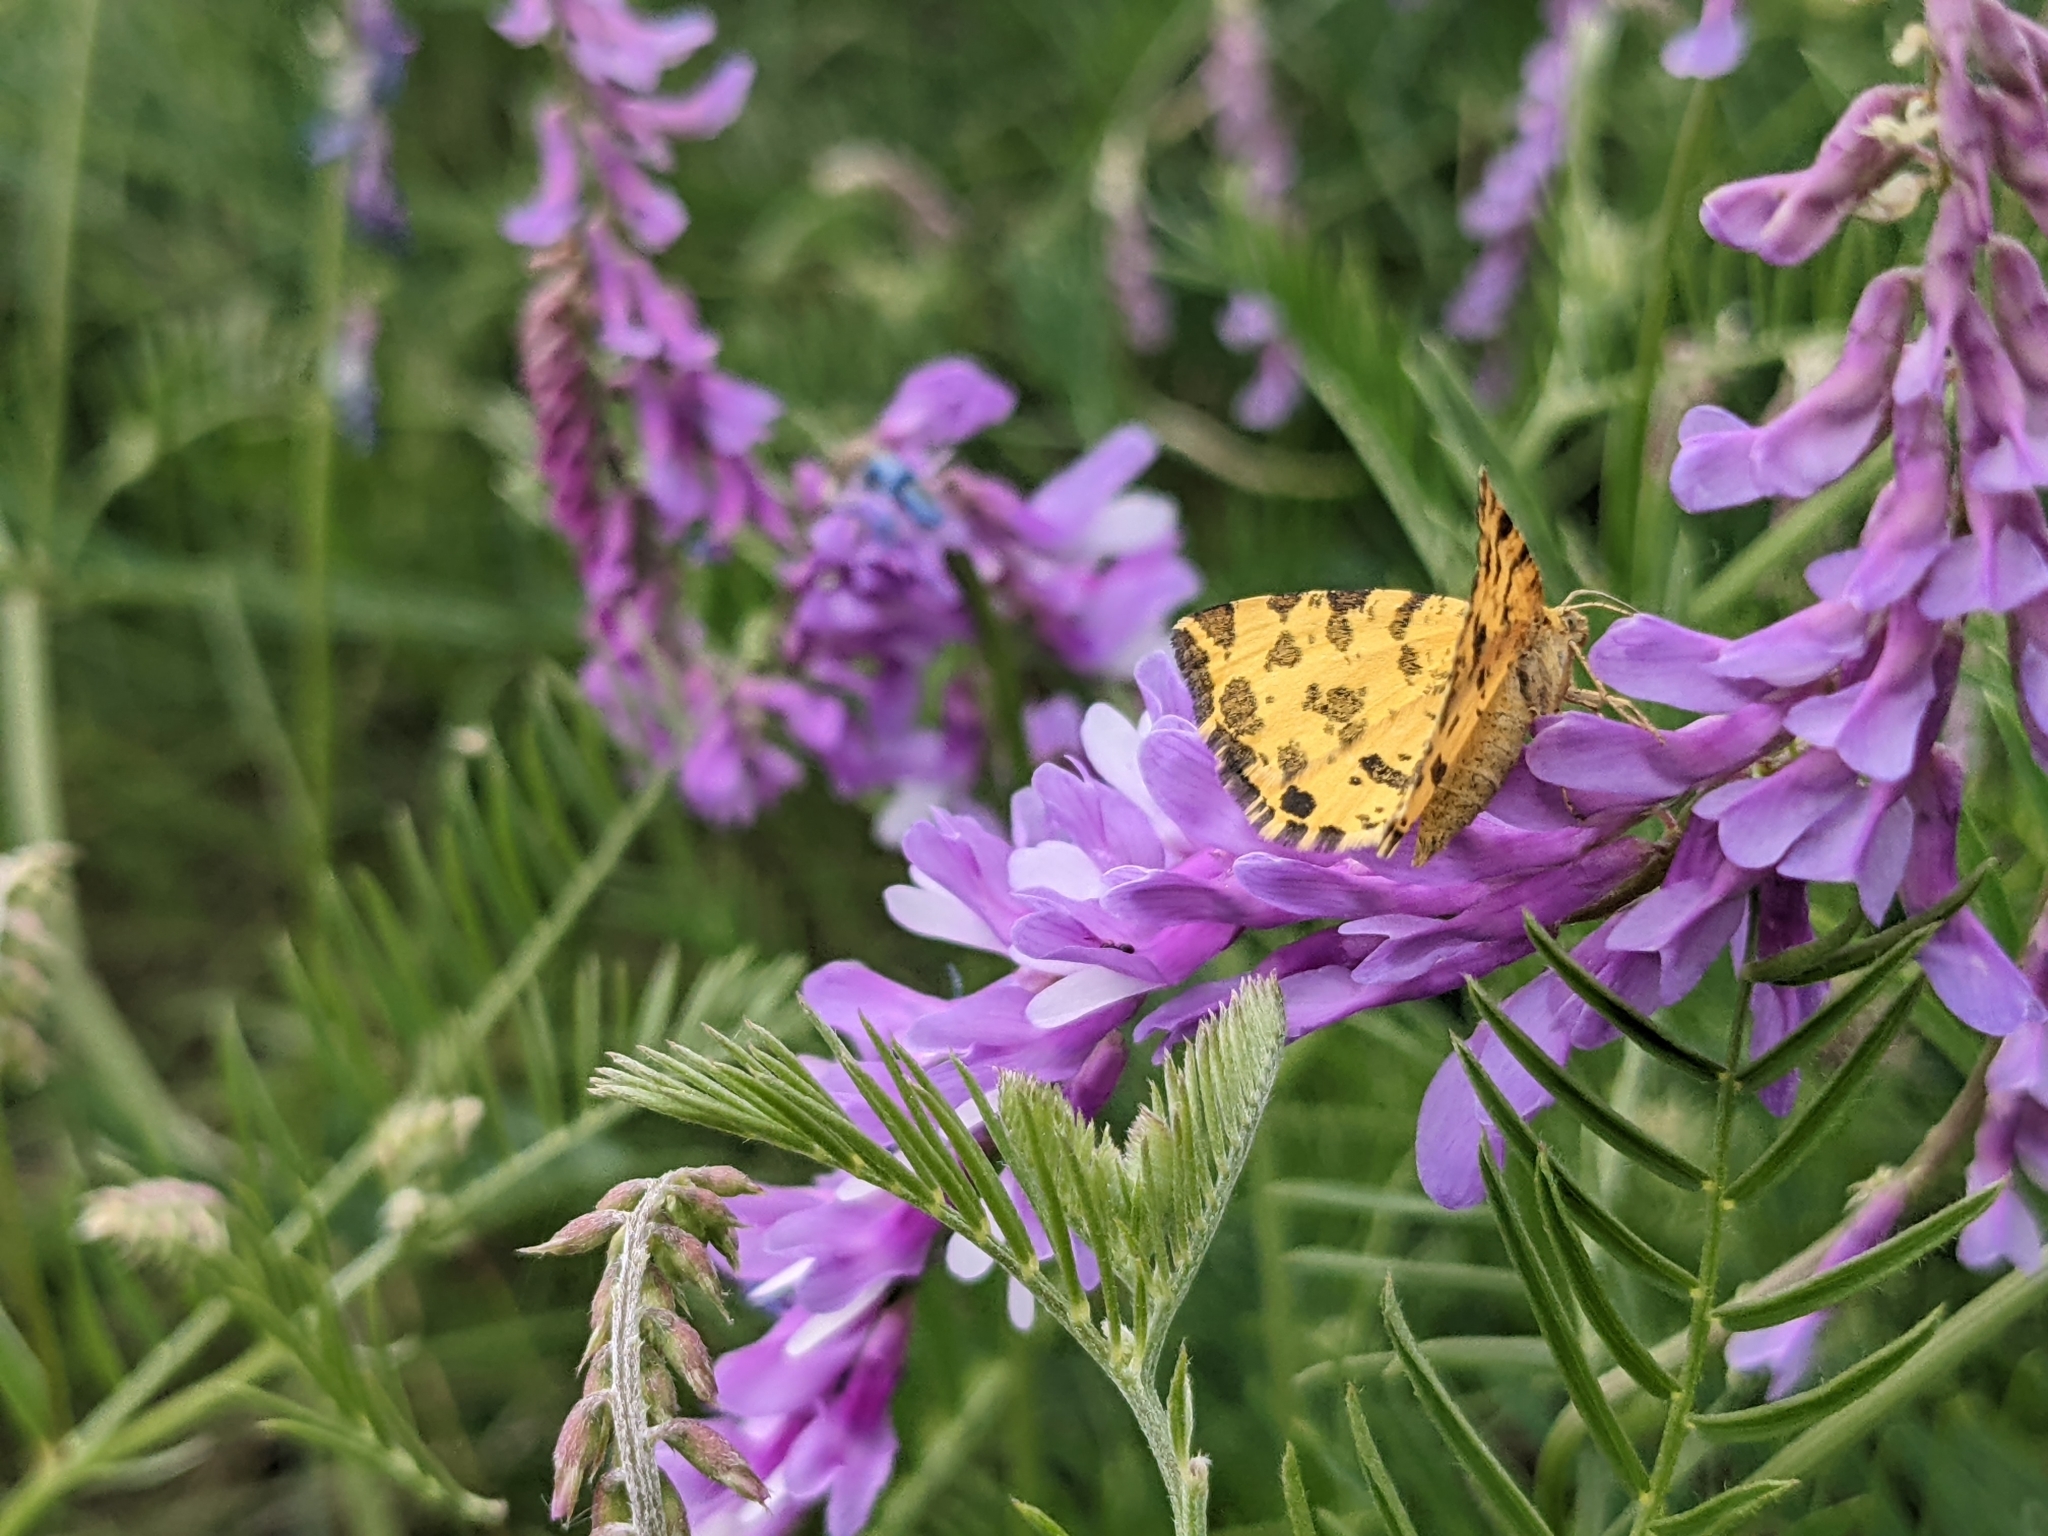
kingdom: Animalia
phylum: Arthropoda
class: Insecta
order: Lepidoptera
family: Geometridae
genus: Pseudopanthera
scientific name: Pseudopanthera macularia
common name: Speckled yellow
